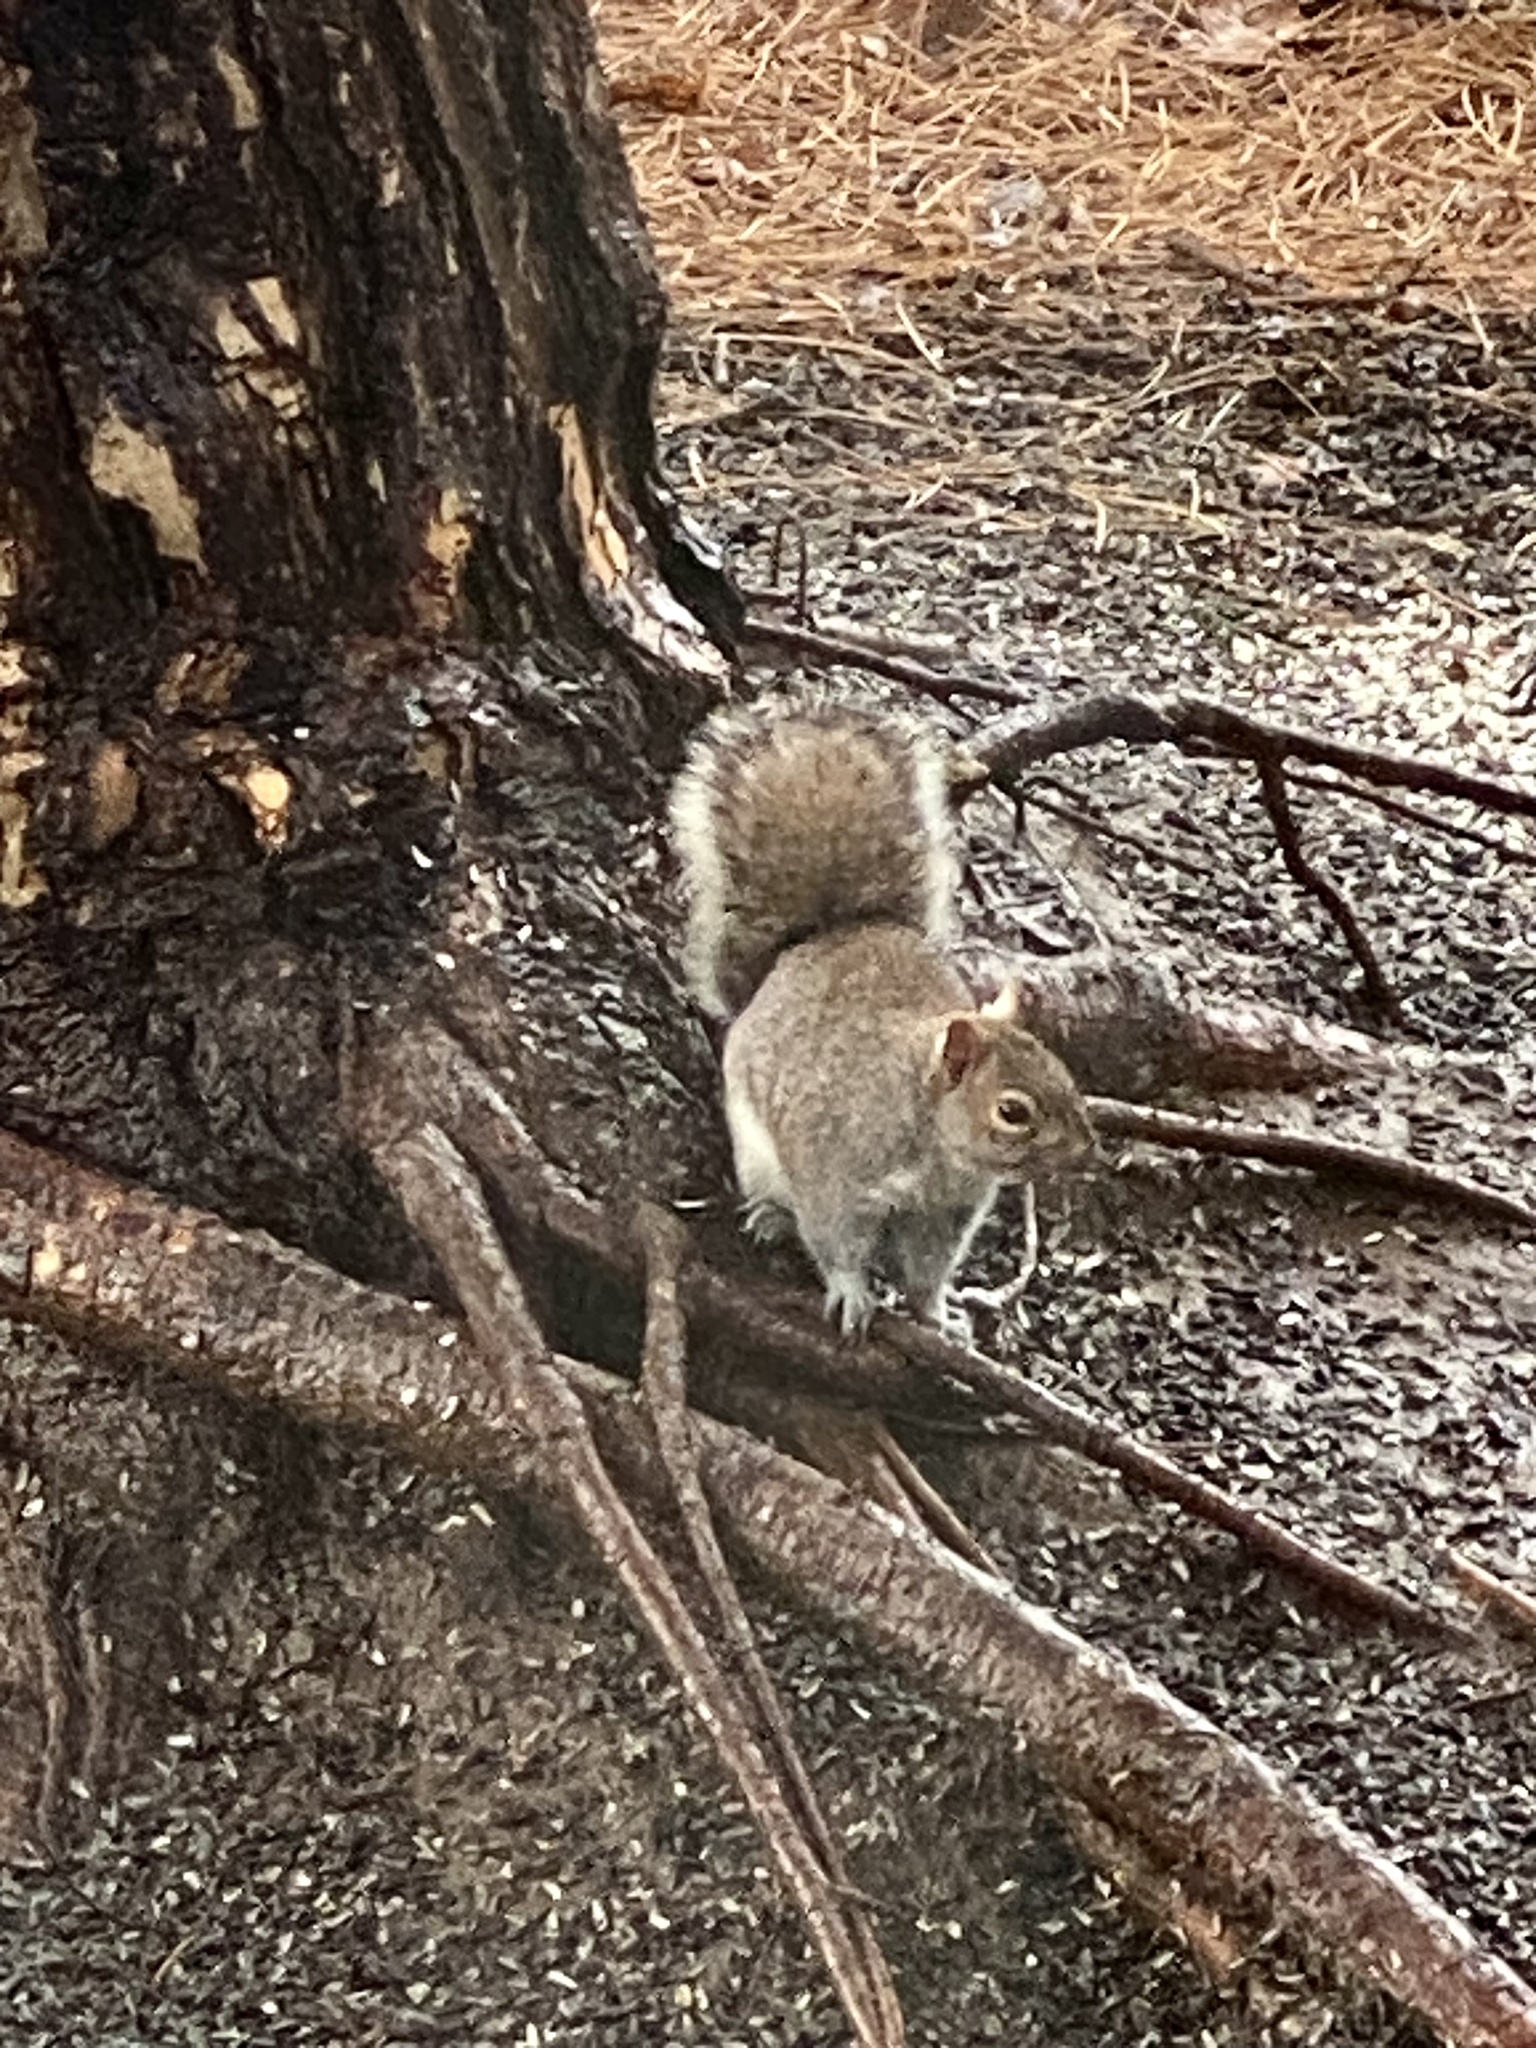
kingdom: Animalia
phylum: Chordata
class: Mammalia
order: Rodentia
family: Sciuridae
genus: Sciurus
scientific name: Sciurus carolinensis
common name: Eastern gray squirrel
